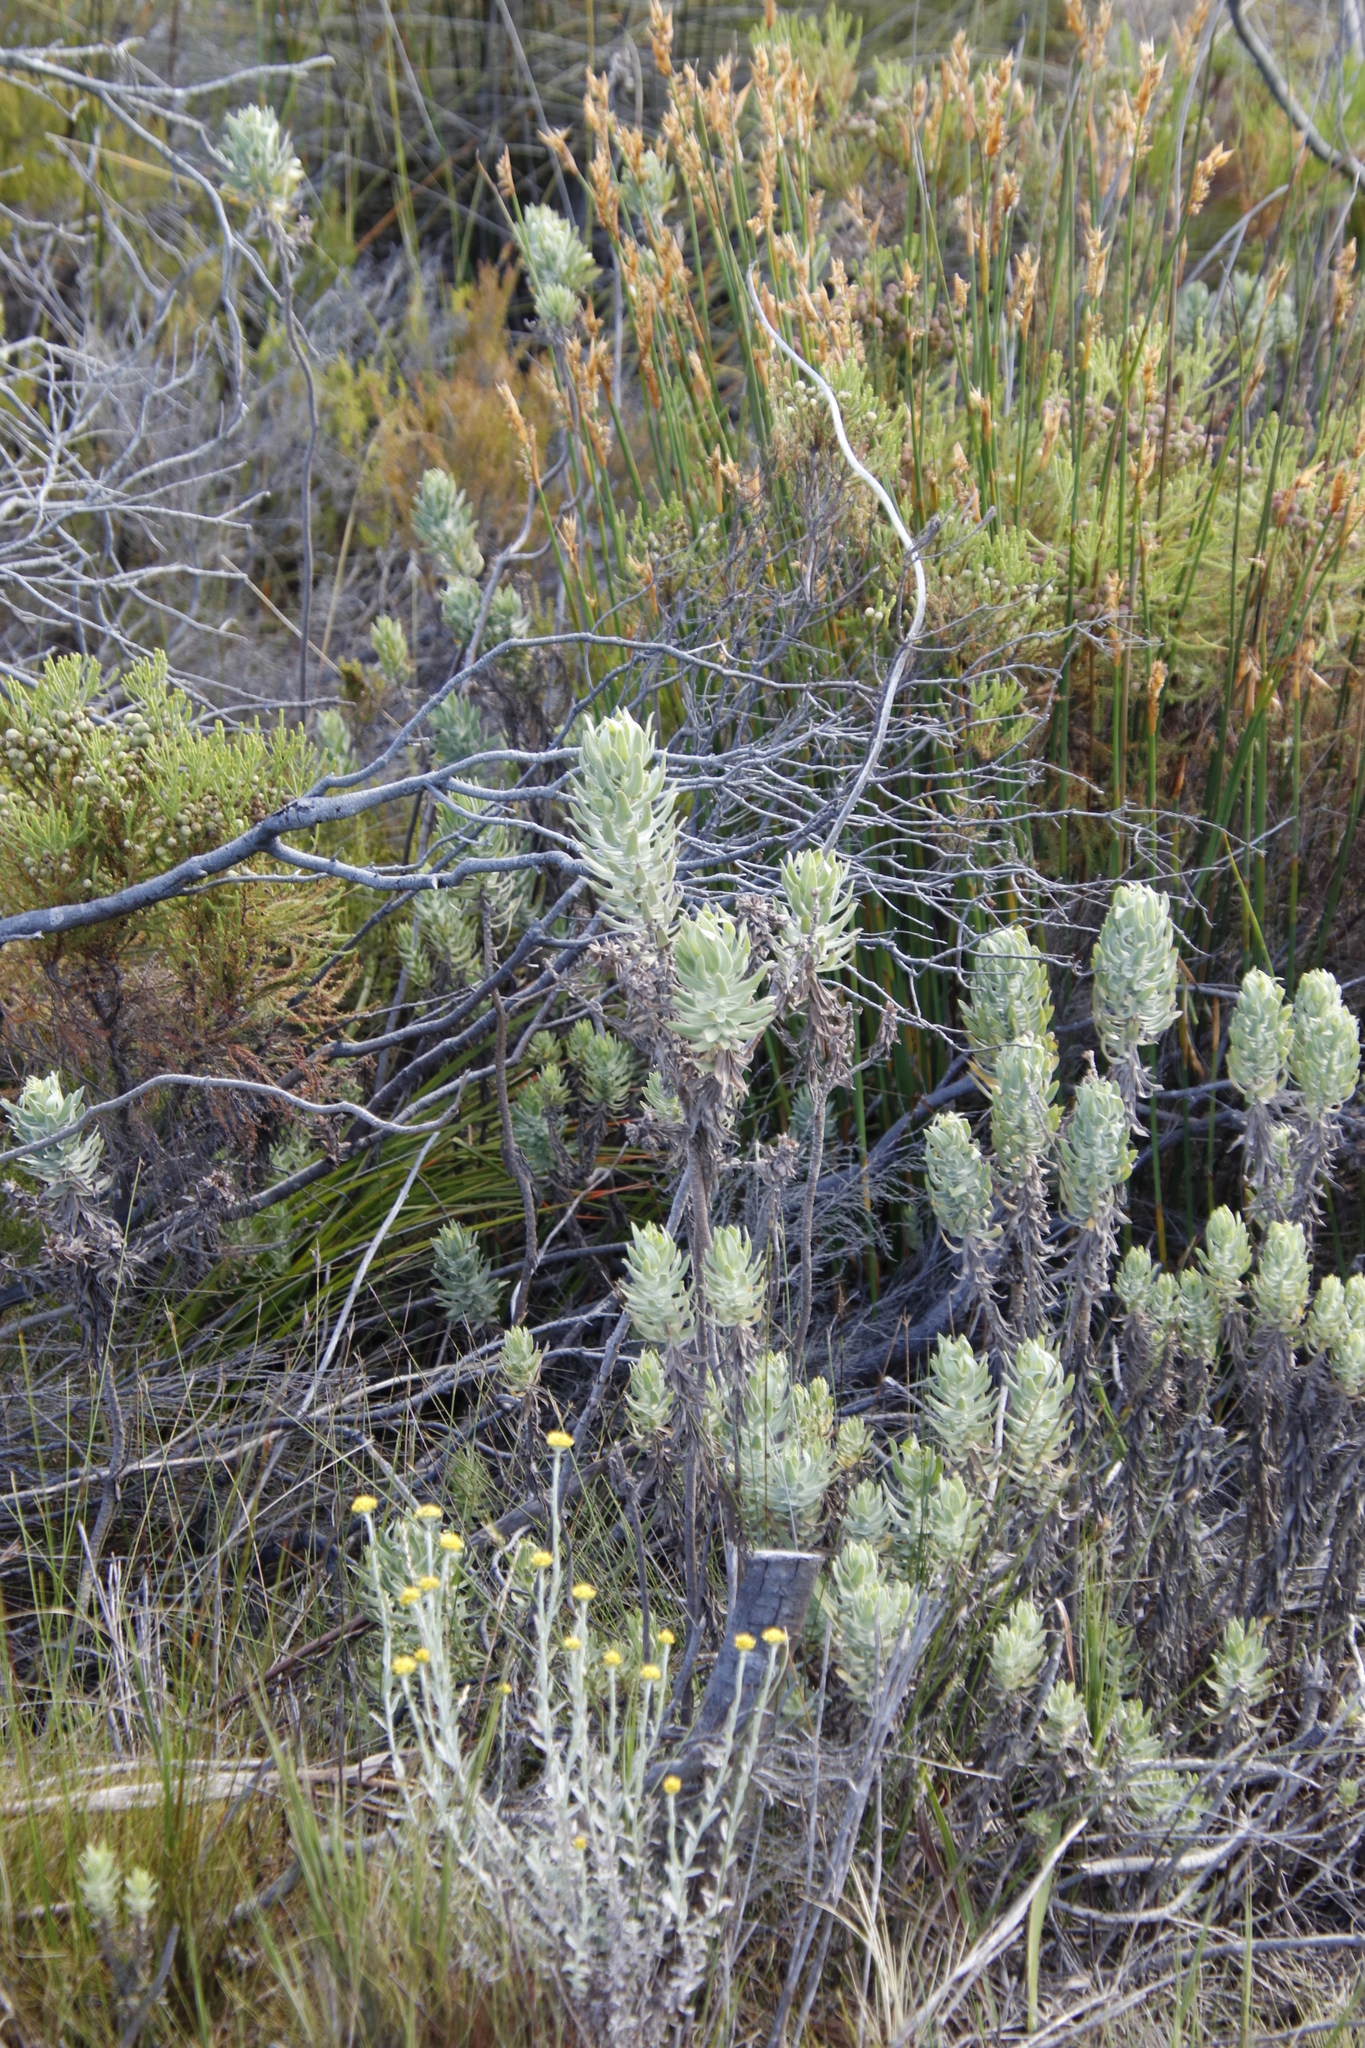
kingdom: Plantae
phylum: Tracheophyta
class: Magnoliopsida
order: Asterales
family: Asteraceae
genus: Osmitopsis
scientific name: Osmitopsis asteriscoides
